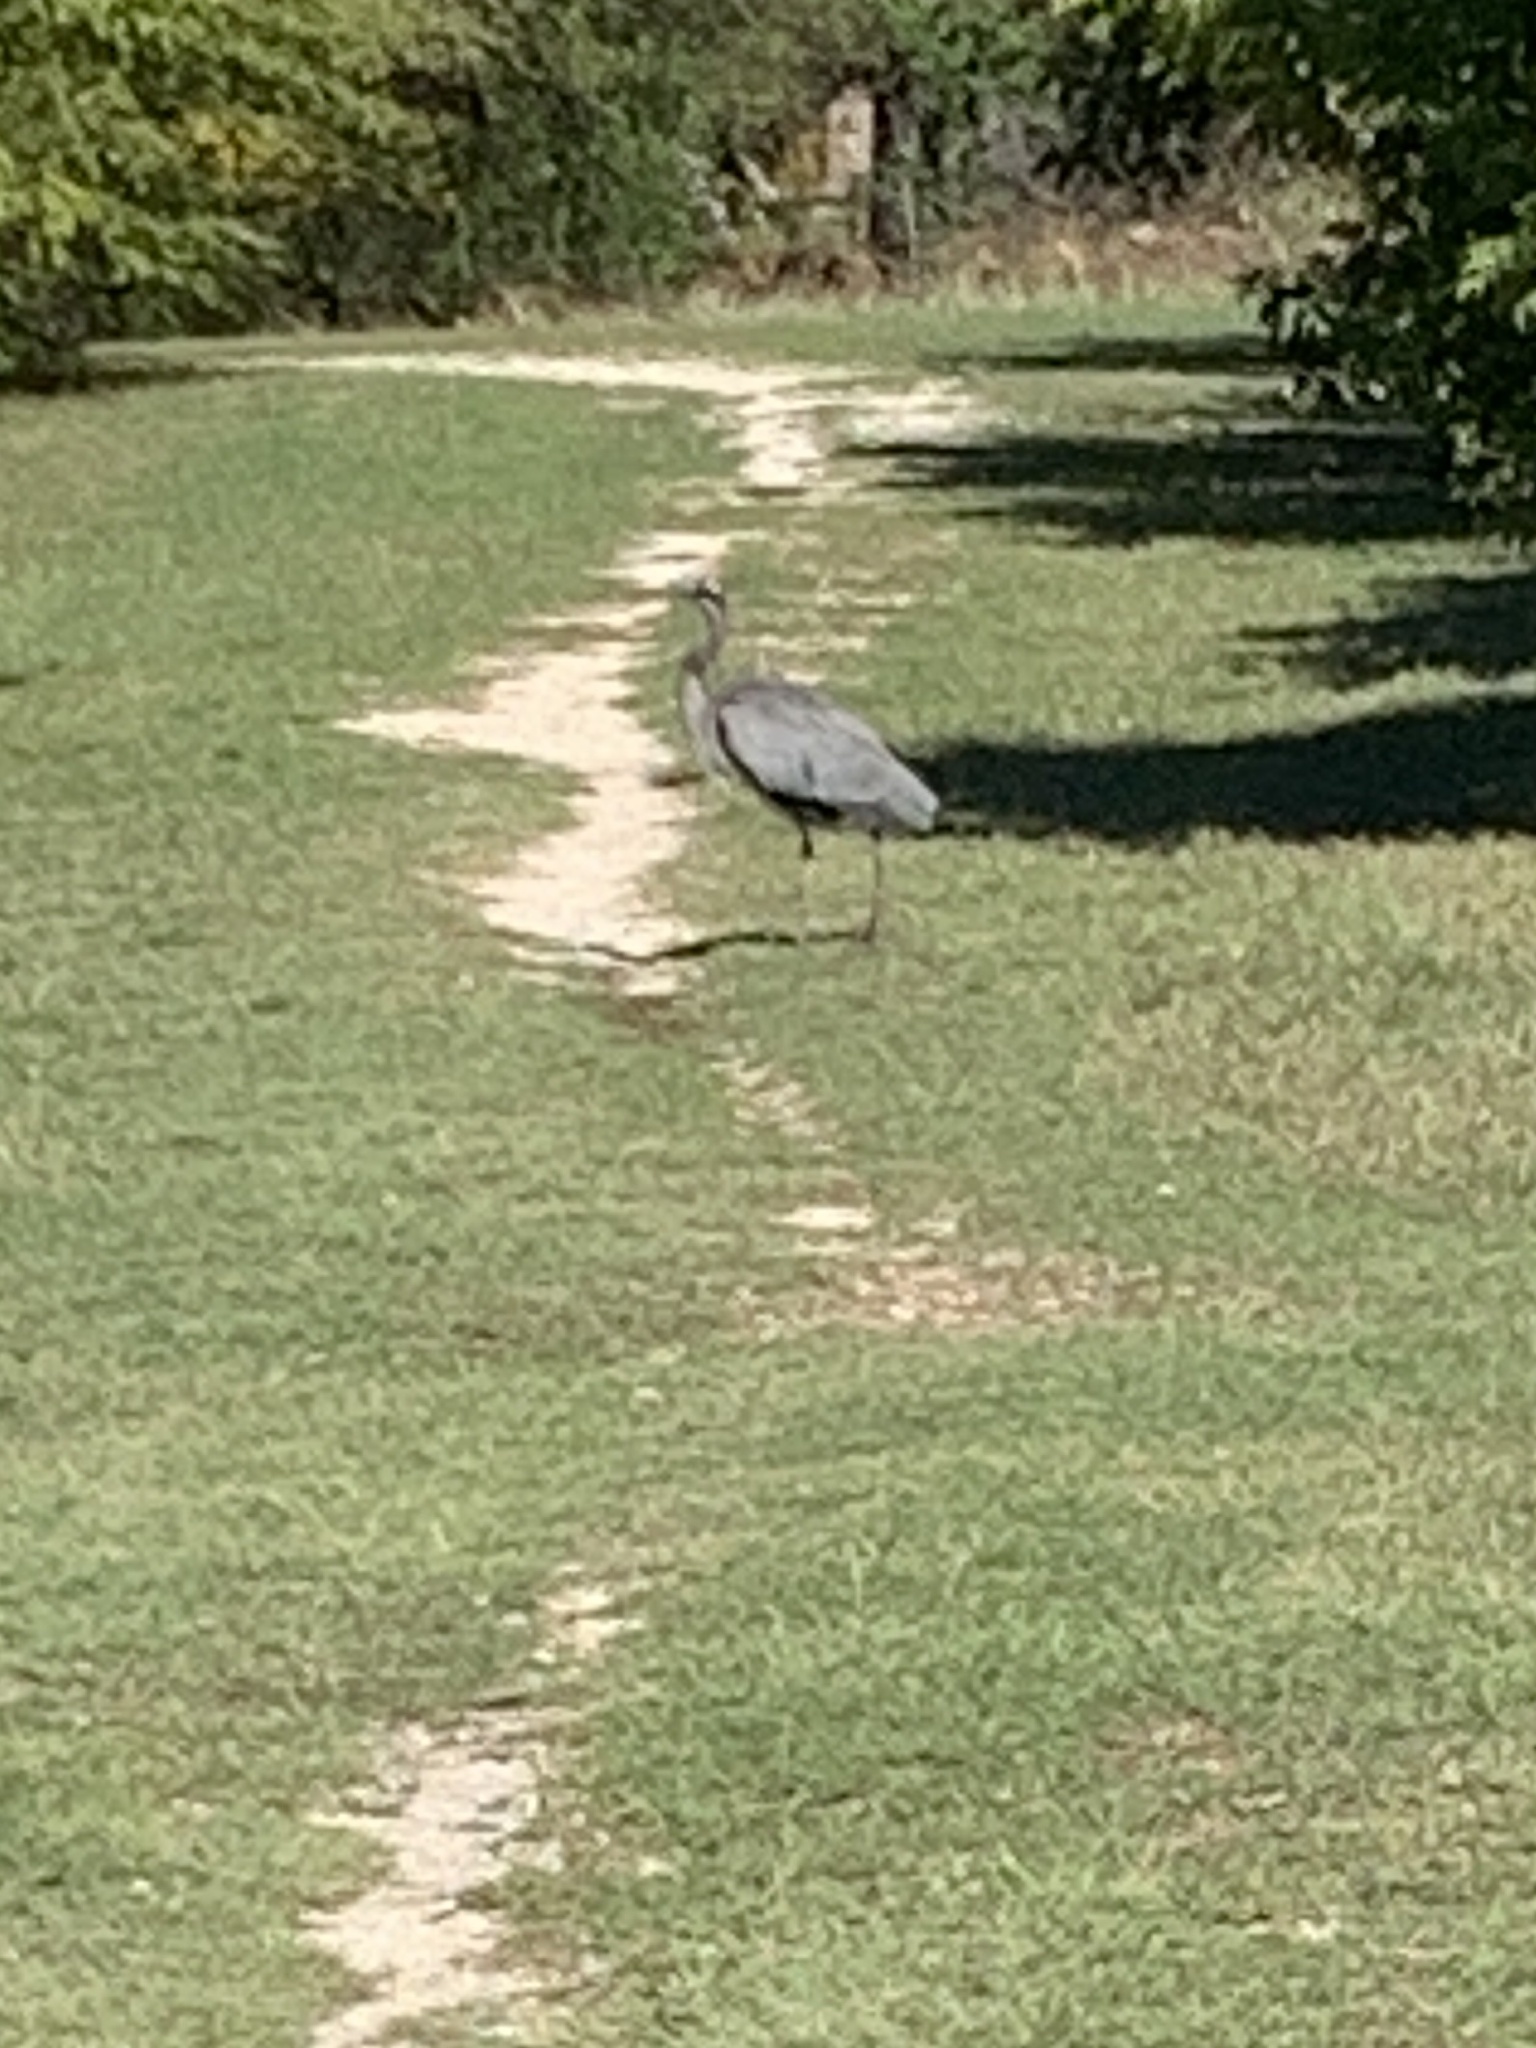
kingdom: Animalia
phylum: Chordata
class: Aves
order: Pelecaniformes
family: Ardeidae
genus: Ardea
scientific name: Ardea herodias
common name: Great blue heron
